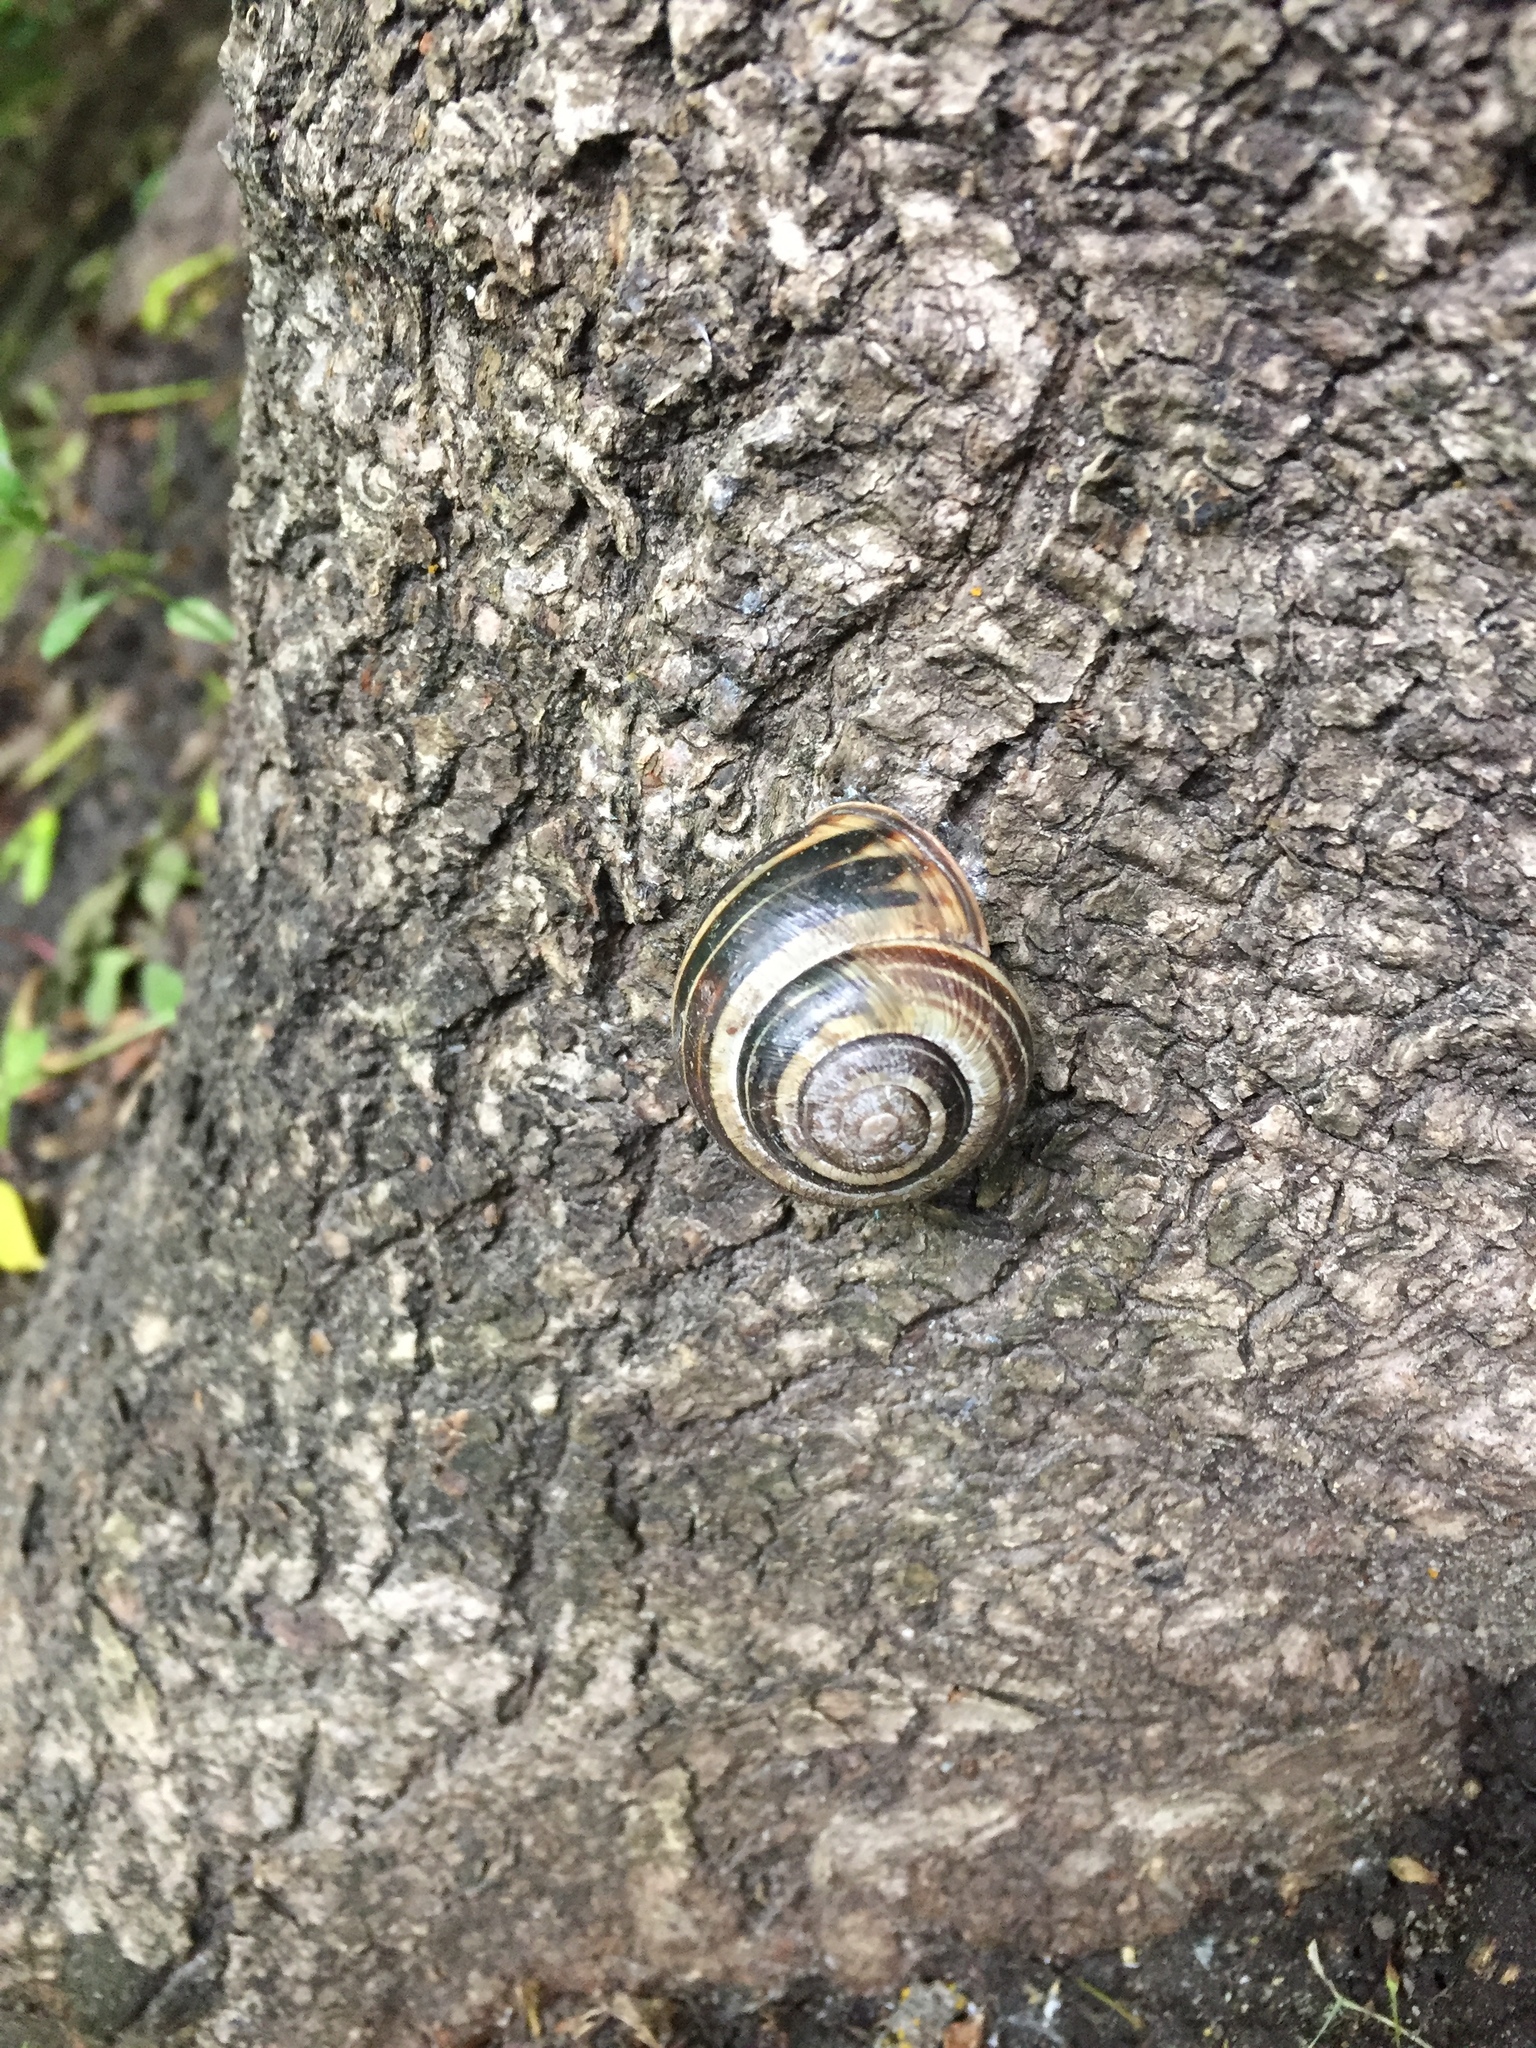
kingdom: Animalia
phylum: Mollusca
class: Gastropoda
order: Stylommatophora
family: Helicidae
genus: Cepaea
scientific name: Cepaea nemoralis
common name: Grovesnail
